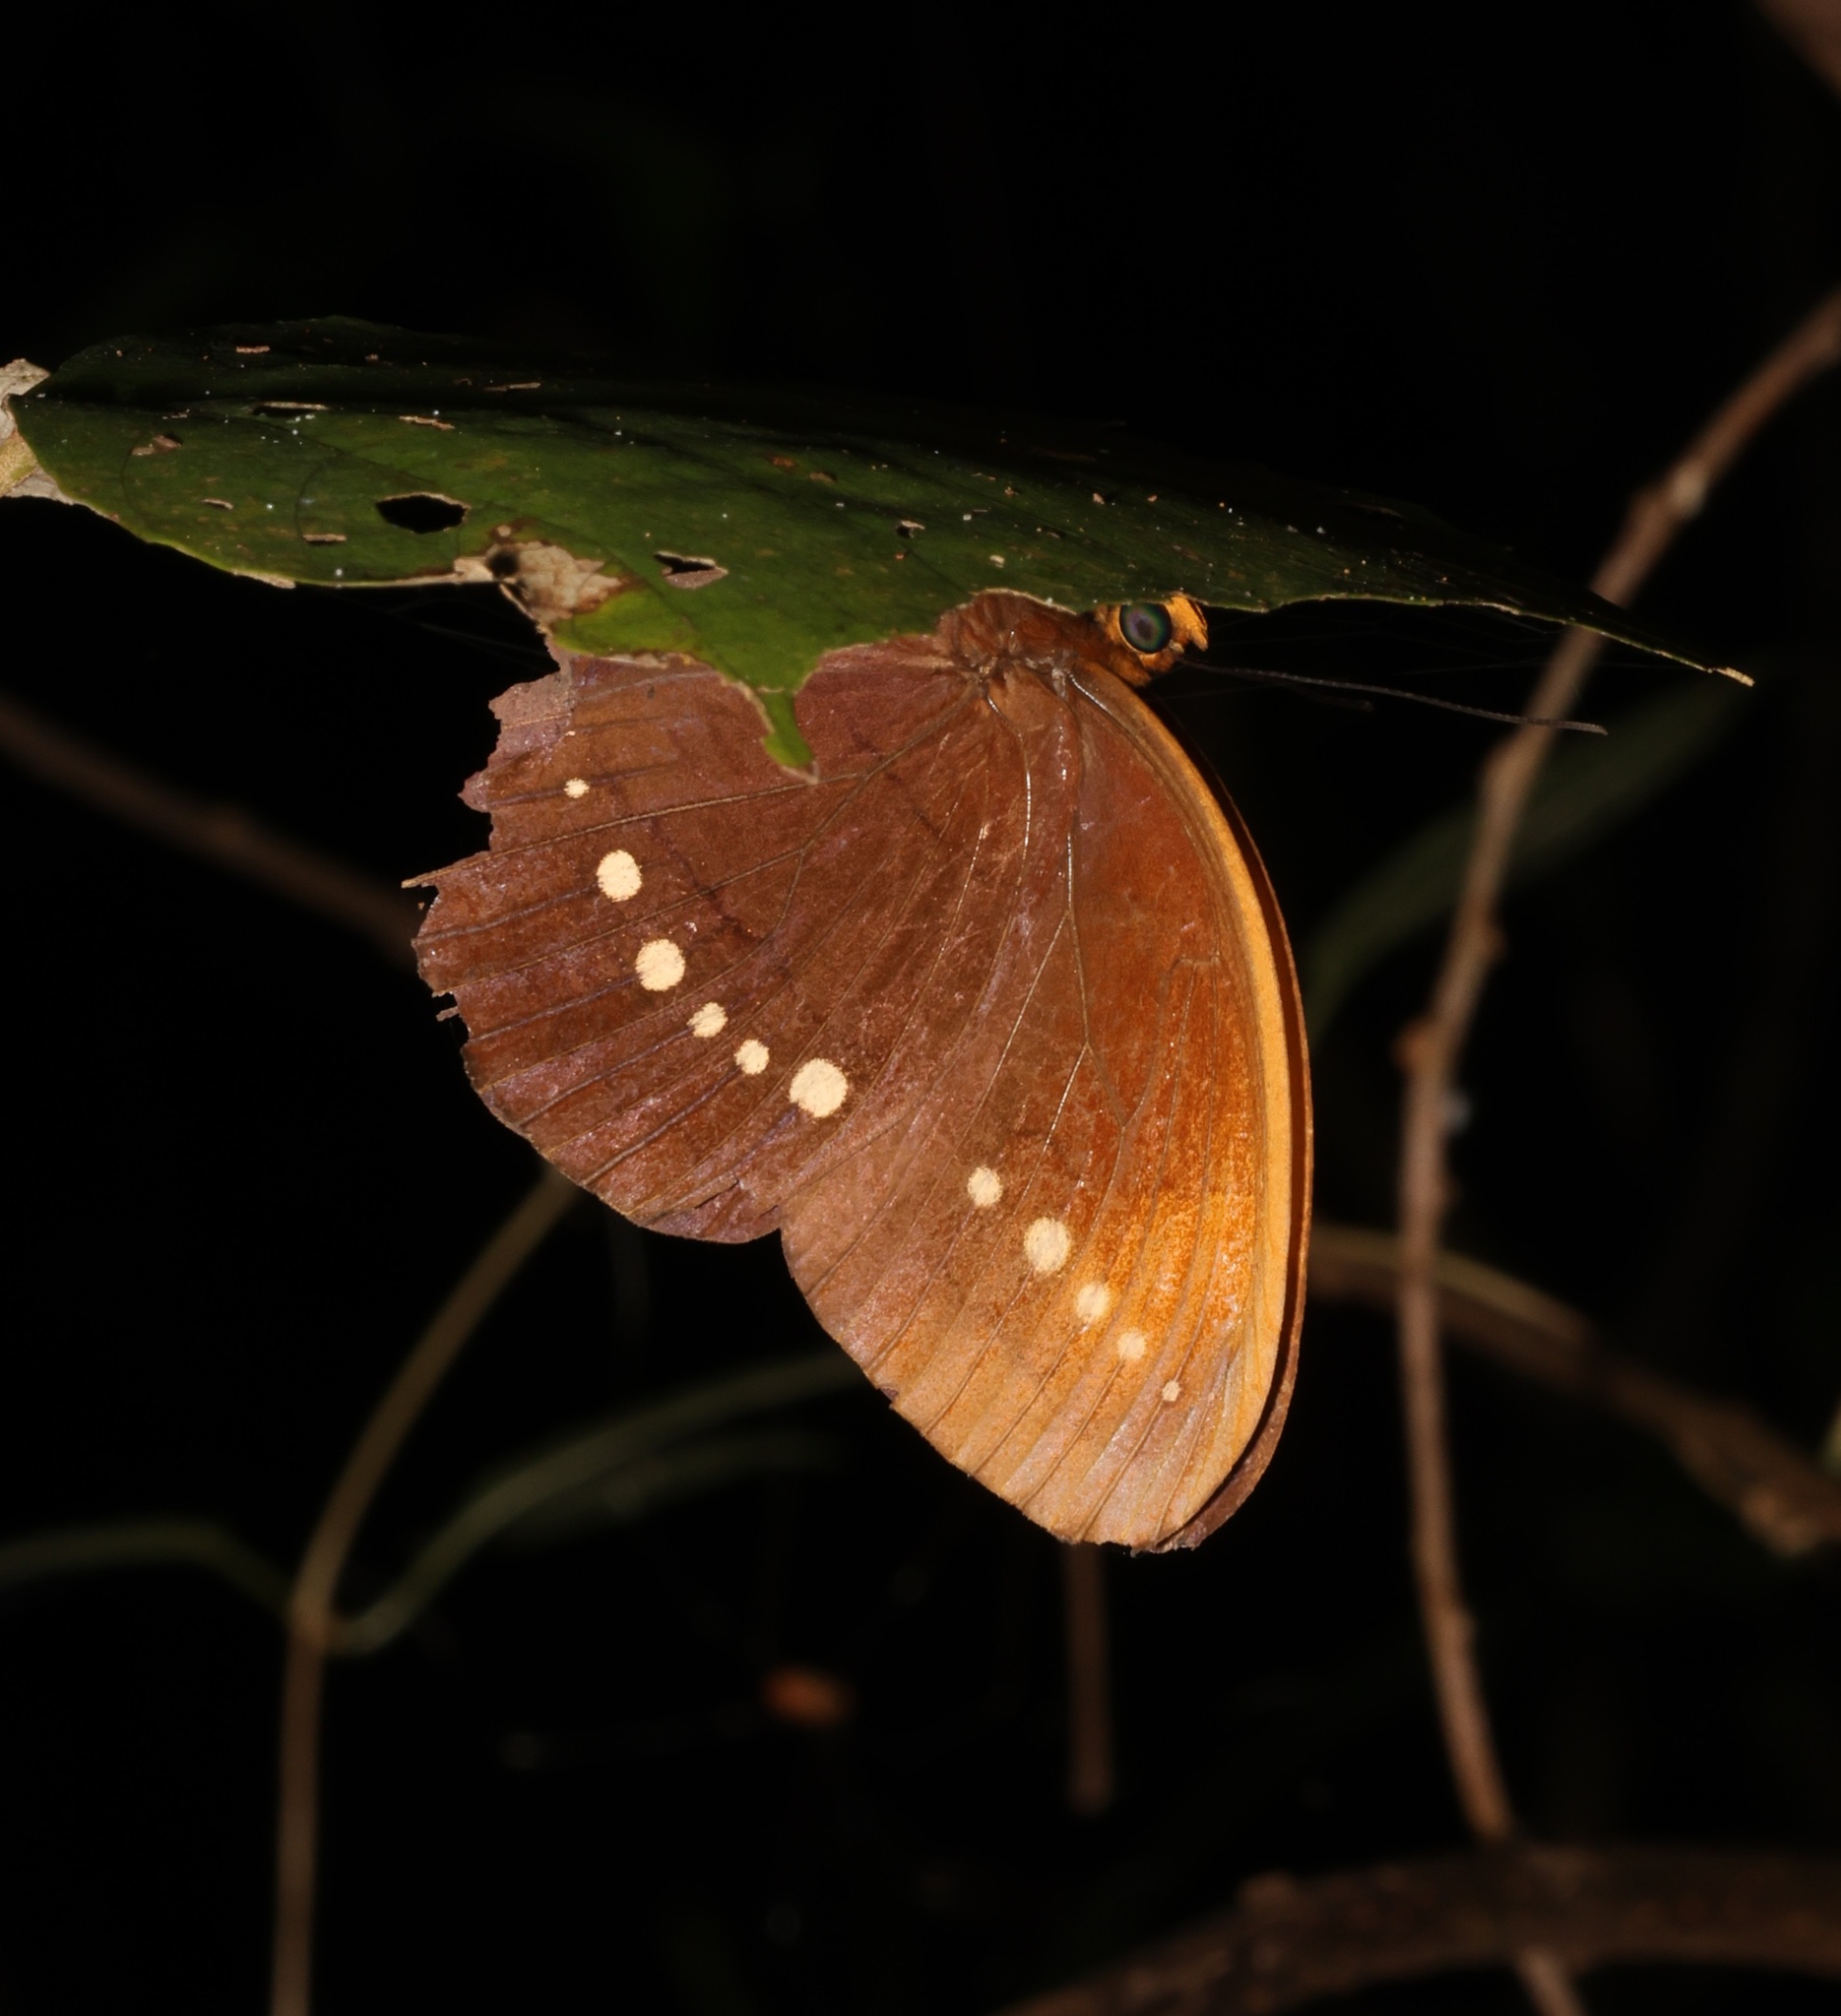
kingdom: Animalia
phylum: Arthropoda
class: Insecta
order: Lepidoptera
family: Nymphalidae
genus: Faunis
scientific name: Faunis eumeus
